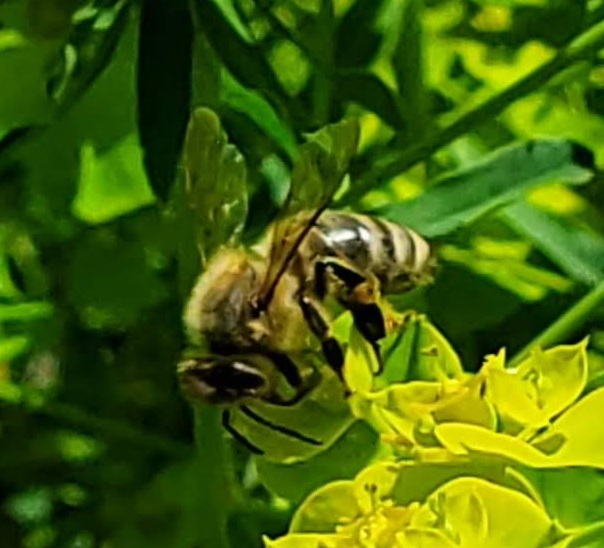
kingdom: Animalia
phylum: Arthropoda
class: Insecta
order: Hymenoptera
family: Apidae
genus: Apis
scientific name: Apis mellifera
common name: Honey bee
